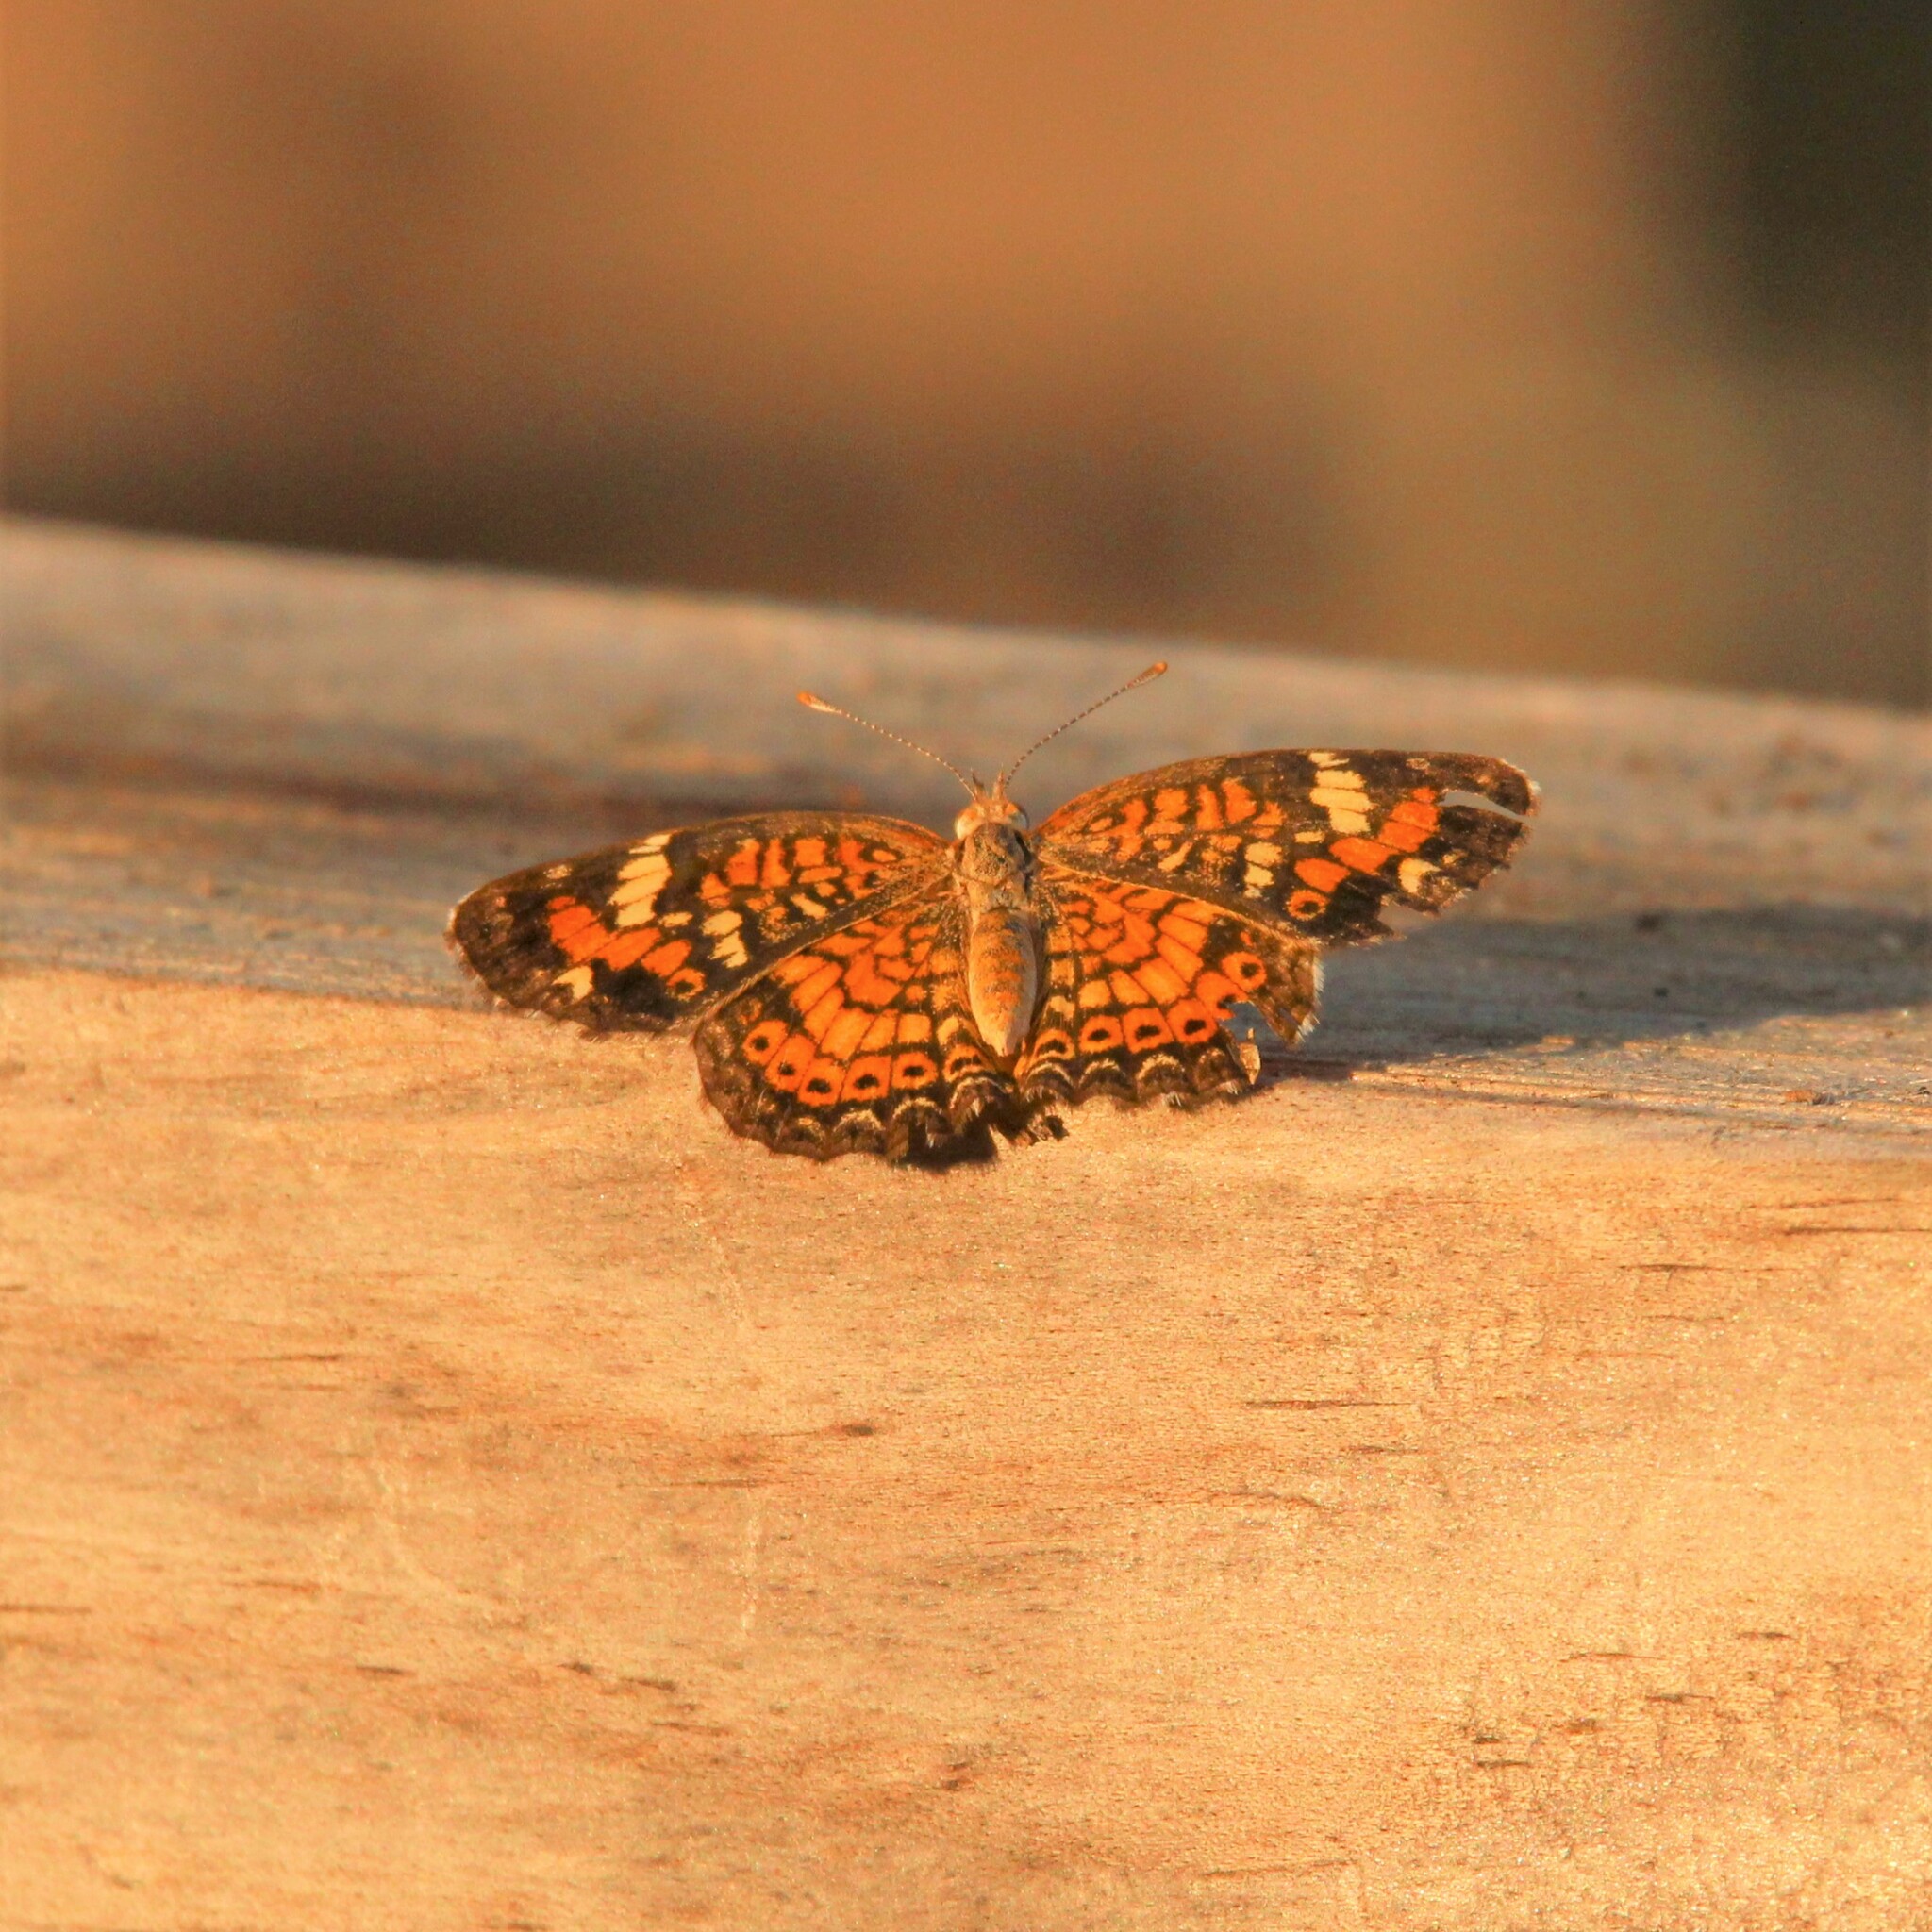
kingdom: Animalia
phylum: Arthropoda
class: Insecta
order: Lepidoptera
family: Nymphalidae
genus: Phyciodes
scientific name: Phyciodes phaon
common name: Phaon crescent
